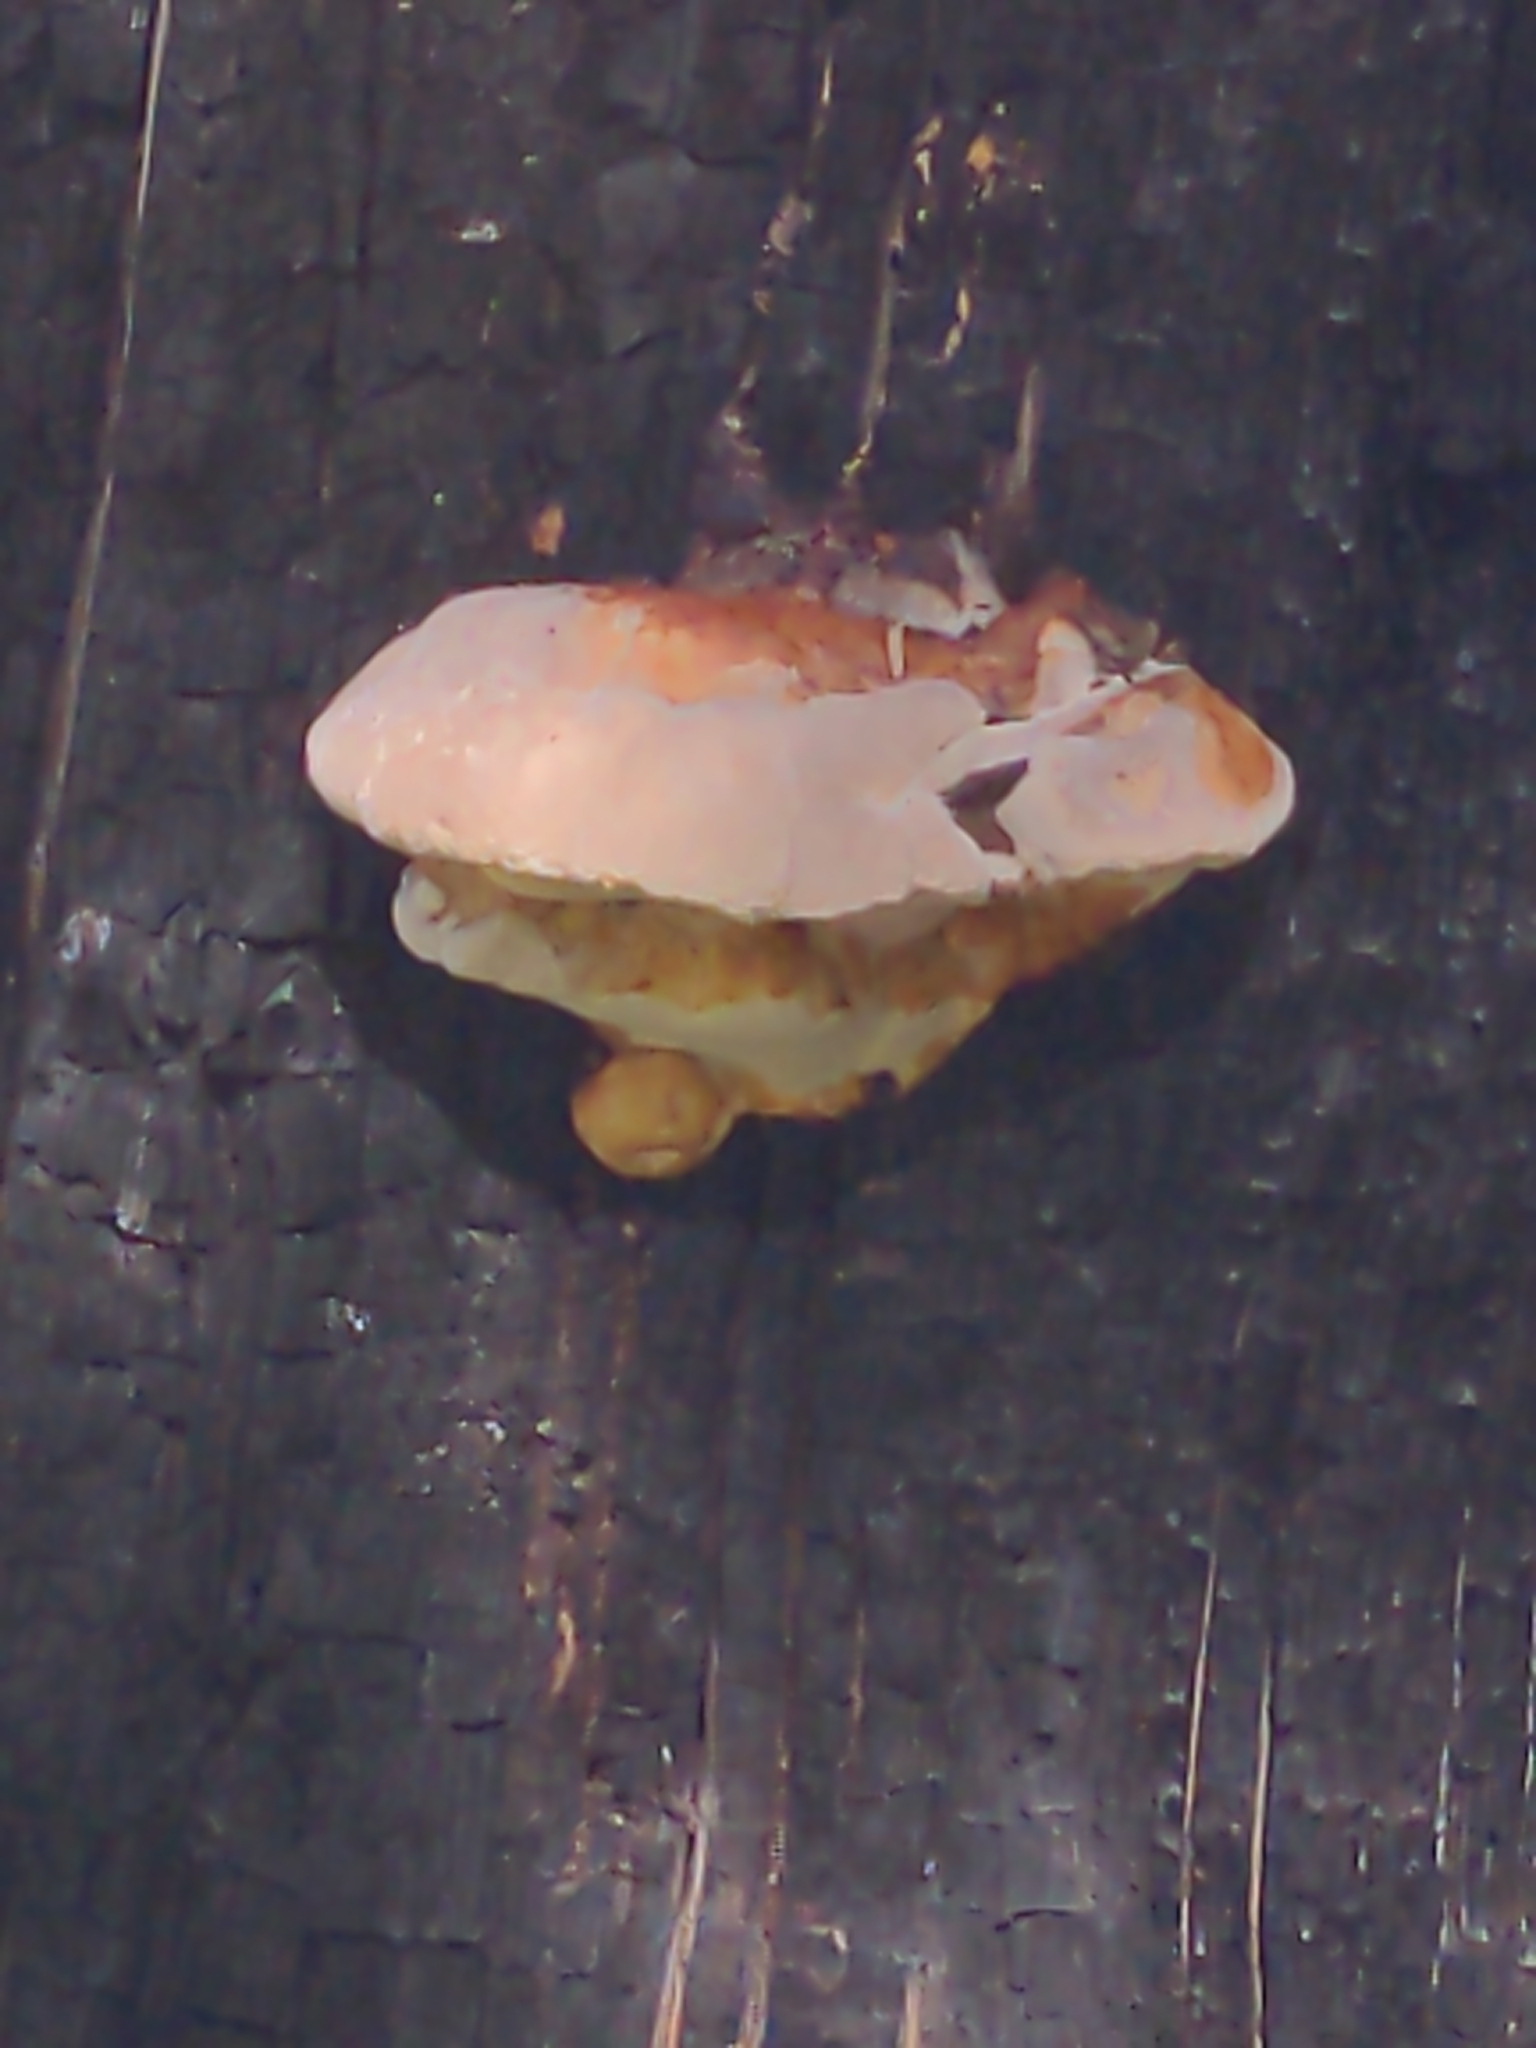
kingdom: Fungi
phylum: Basidiomycota
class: Agaricomycetes
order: Polyporales
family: Fomitopsidaceae
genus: Fomitopsis
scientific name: Fomitopsis schrenkii
